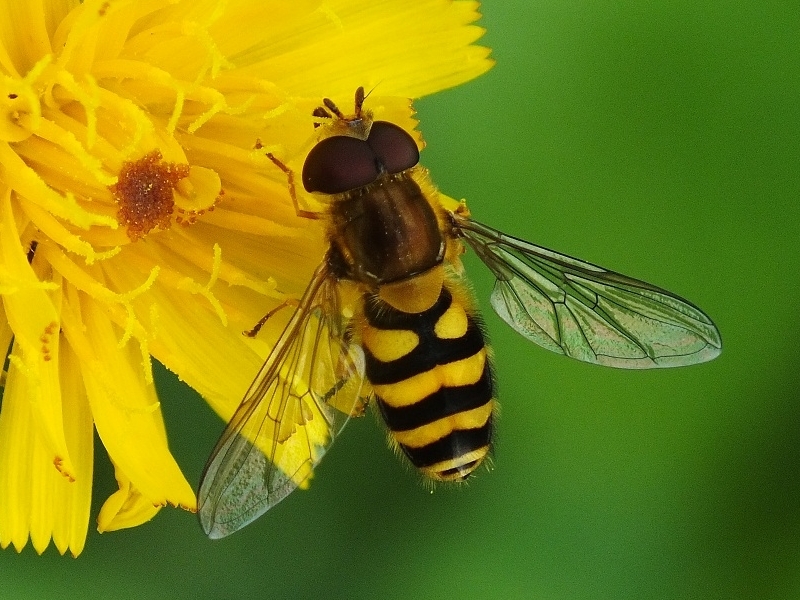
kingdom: Animalia
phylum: Arthropoda
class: Insecta
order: Diptera
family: Syrphidae
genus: Syrphus
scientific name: Syrphus
